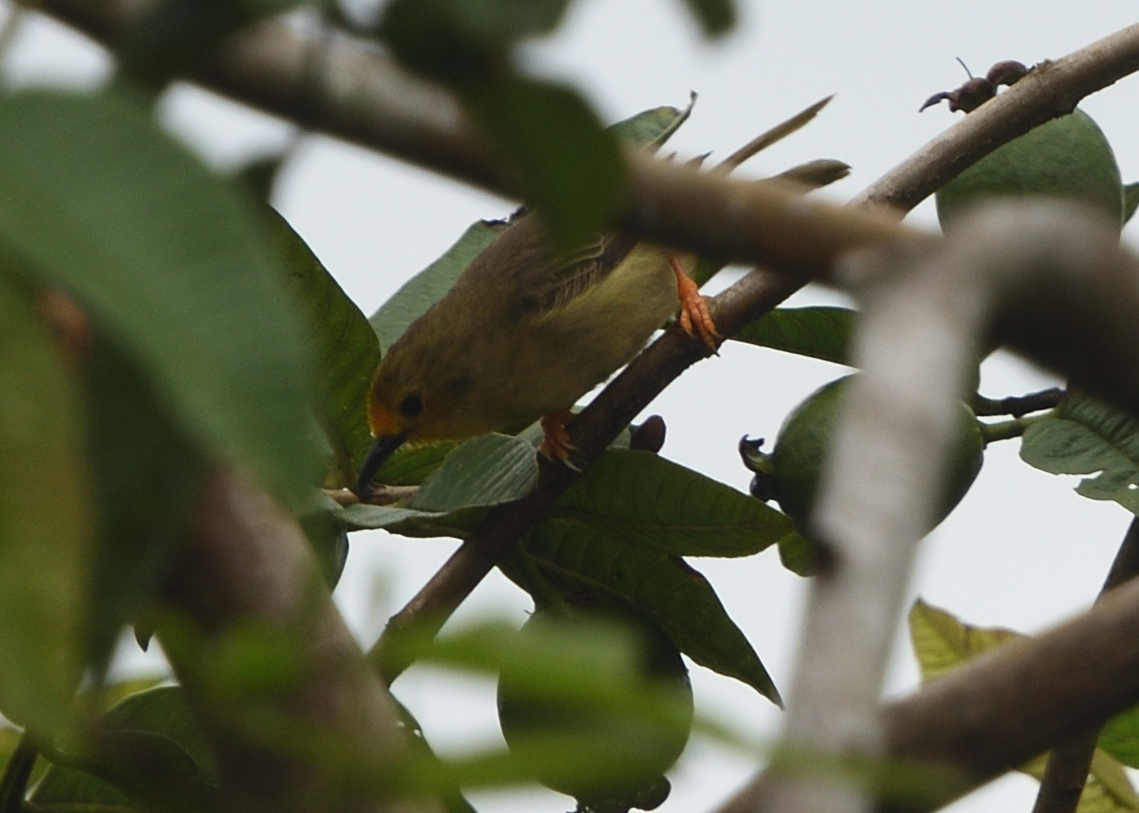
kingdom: Animalia
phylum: Chordata
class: Aves
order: Passeriformes
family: Furnariidae
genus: Metopothrix
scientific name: Metopothrix aurantiaca
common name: Orange-fronted plushcrown
